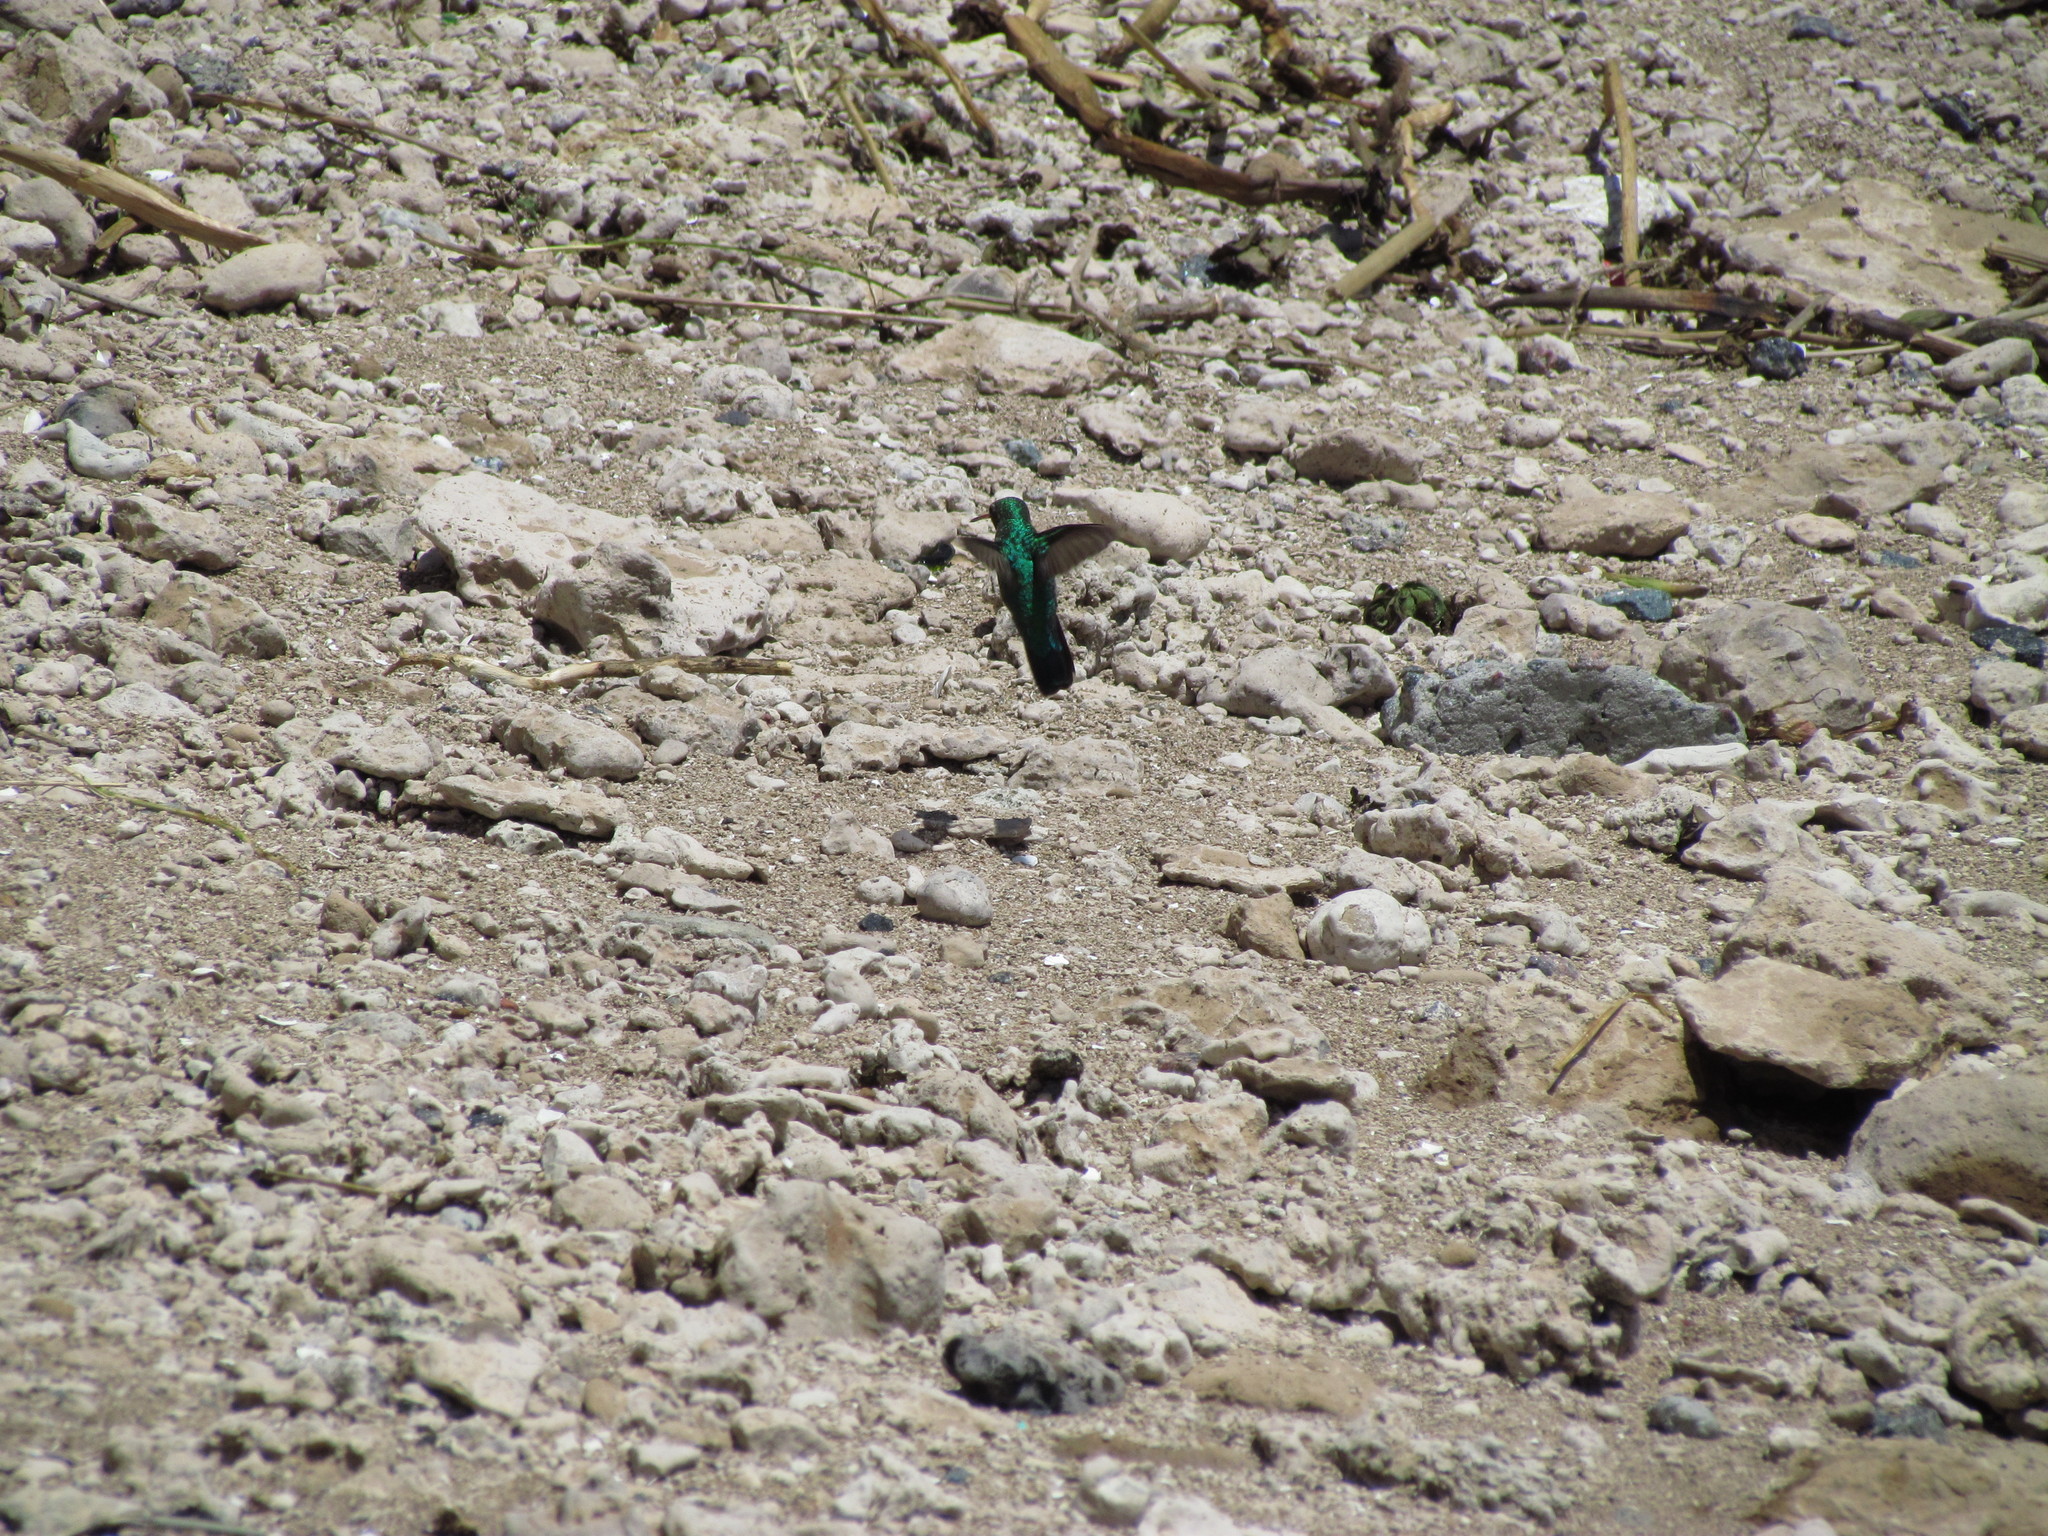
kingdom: Animalia
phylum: Chordata
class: Aves
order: Apodiformes
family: Trochilidae
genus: Chlorostilbon
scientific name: Chlorostilbon lucidus
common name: Glittering-bellied emerald
